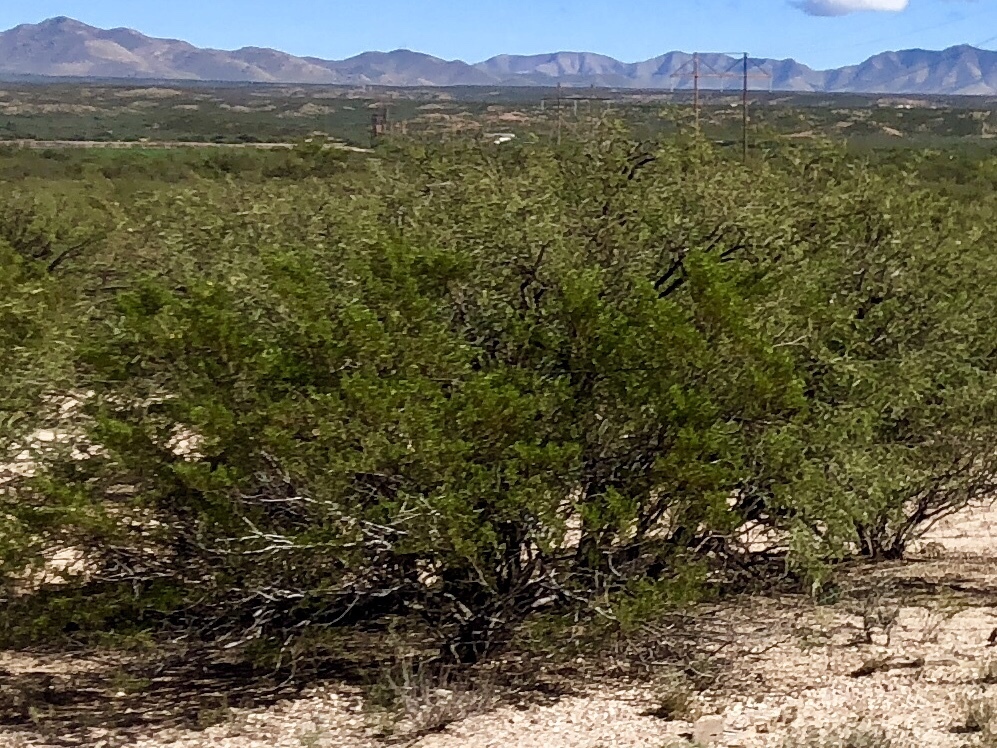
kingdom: Plantae
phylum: Tracheophyta
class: Magnoliopsida
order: Zygophyllales
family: Zygophyllaceae
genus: Larrea
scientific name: Larrea tridentata
